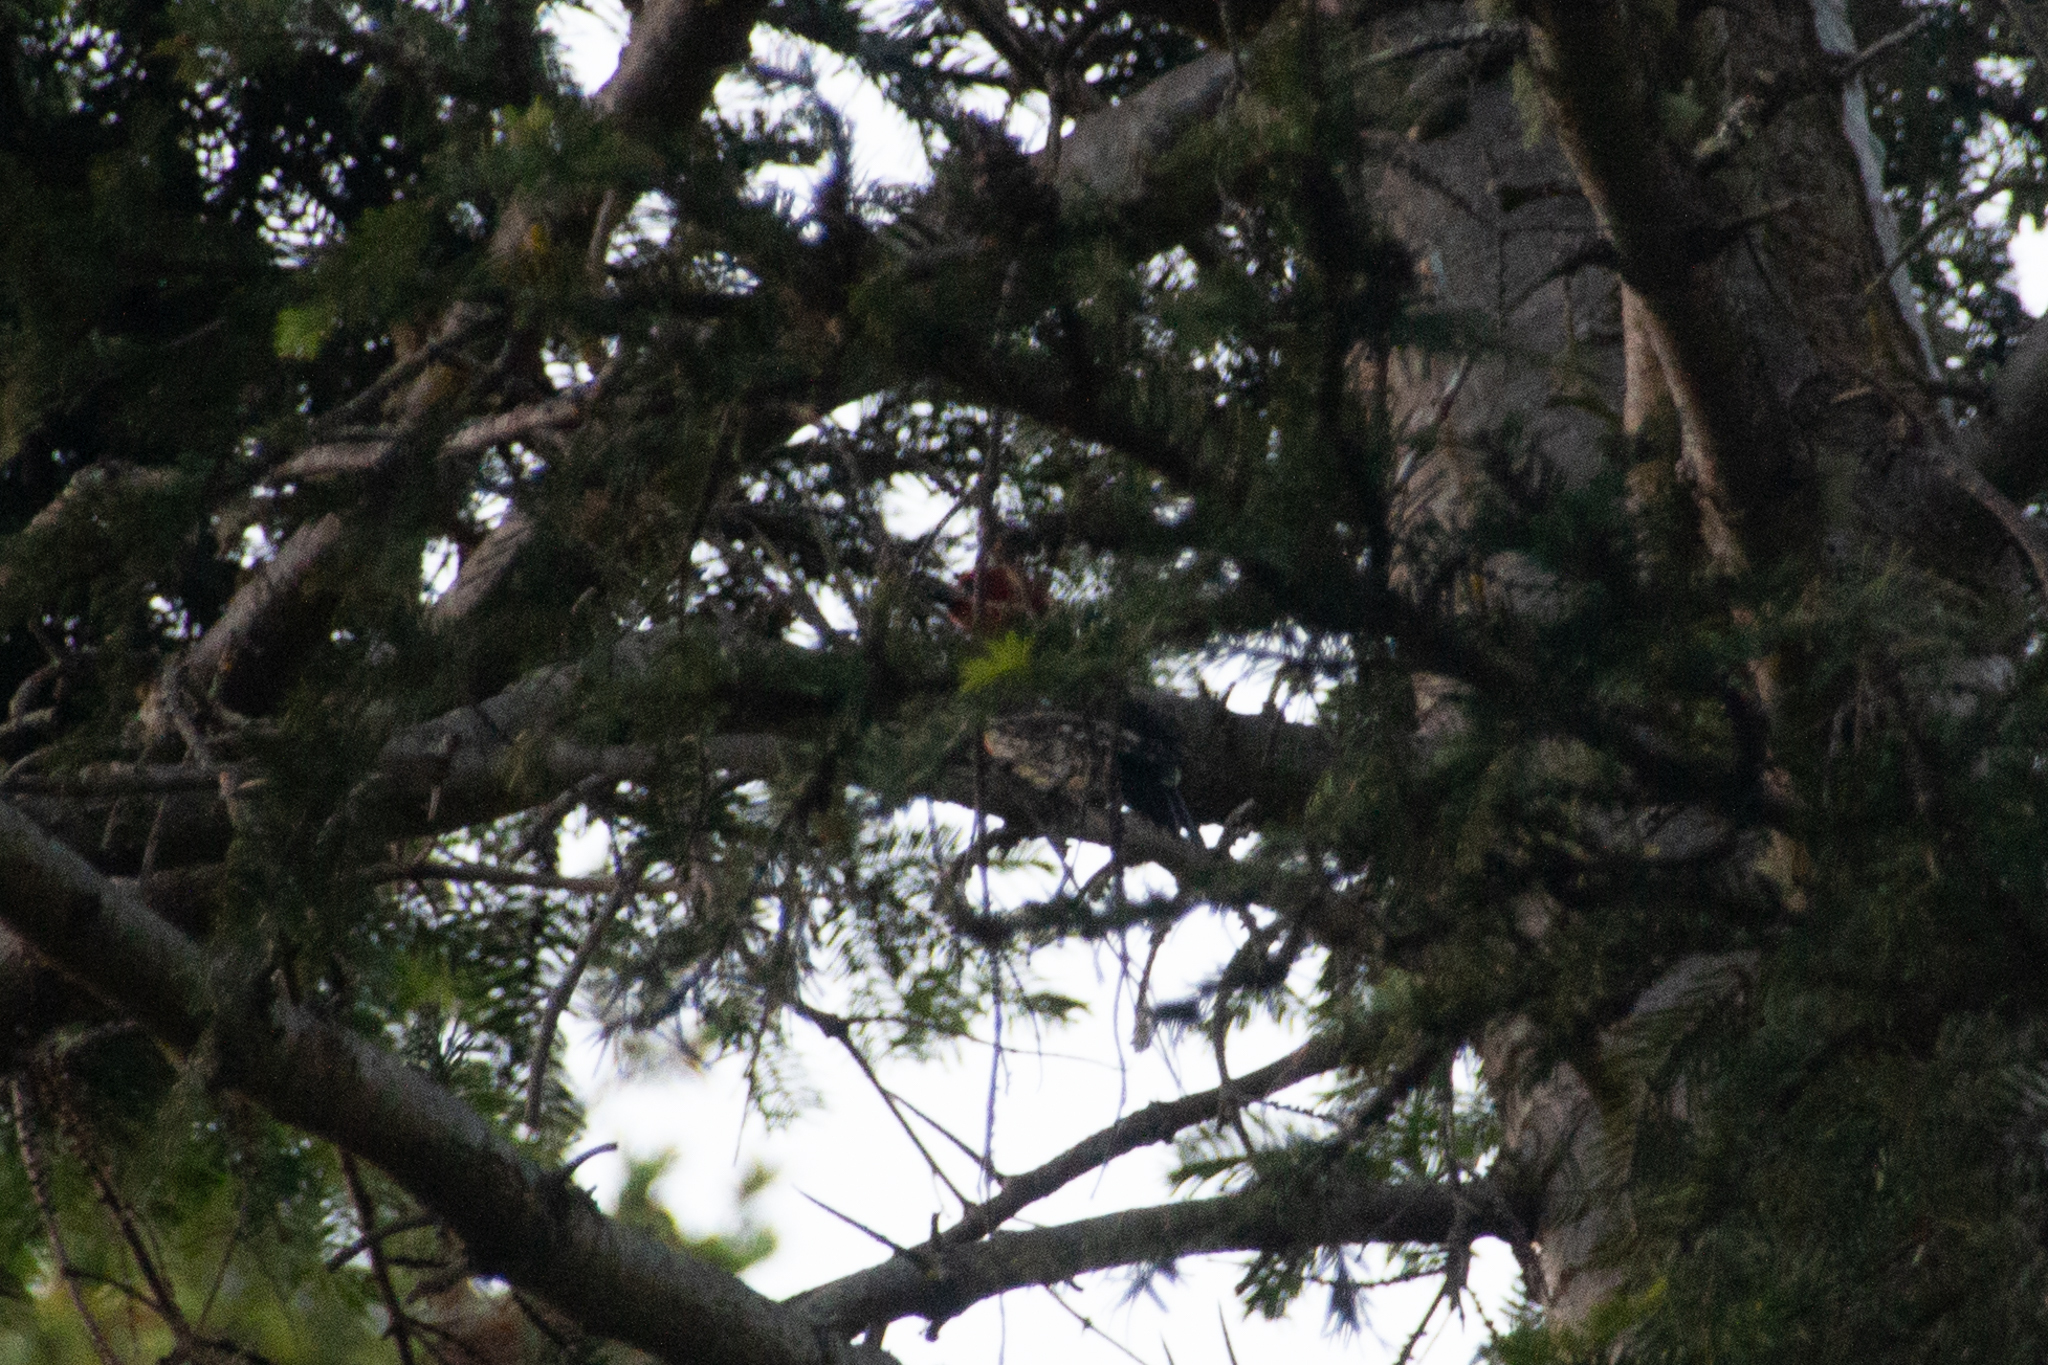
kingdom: Animalia
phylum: Chordata
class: Aves
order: Piciformes
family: Picidae
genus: Sphyrapicus
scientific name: Sphyrapicus ruber
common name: Red-breasted sapsucker
